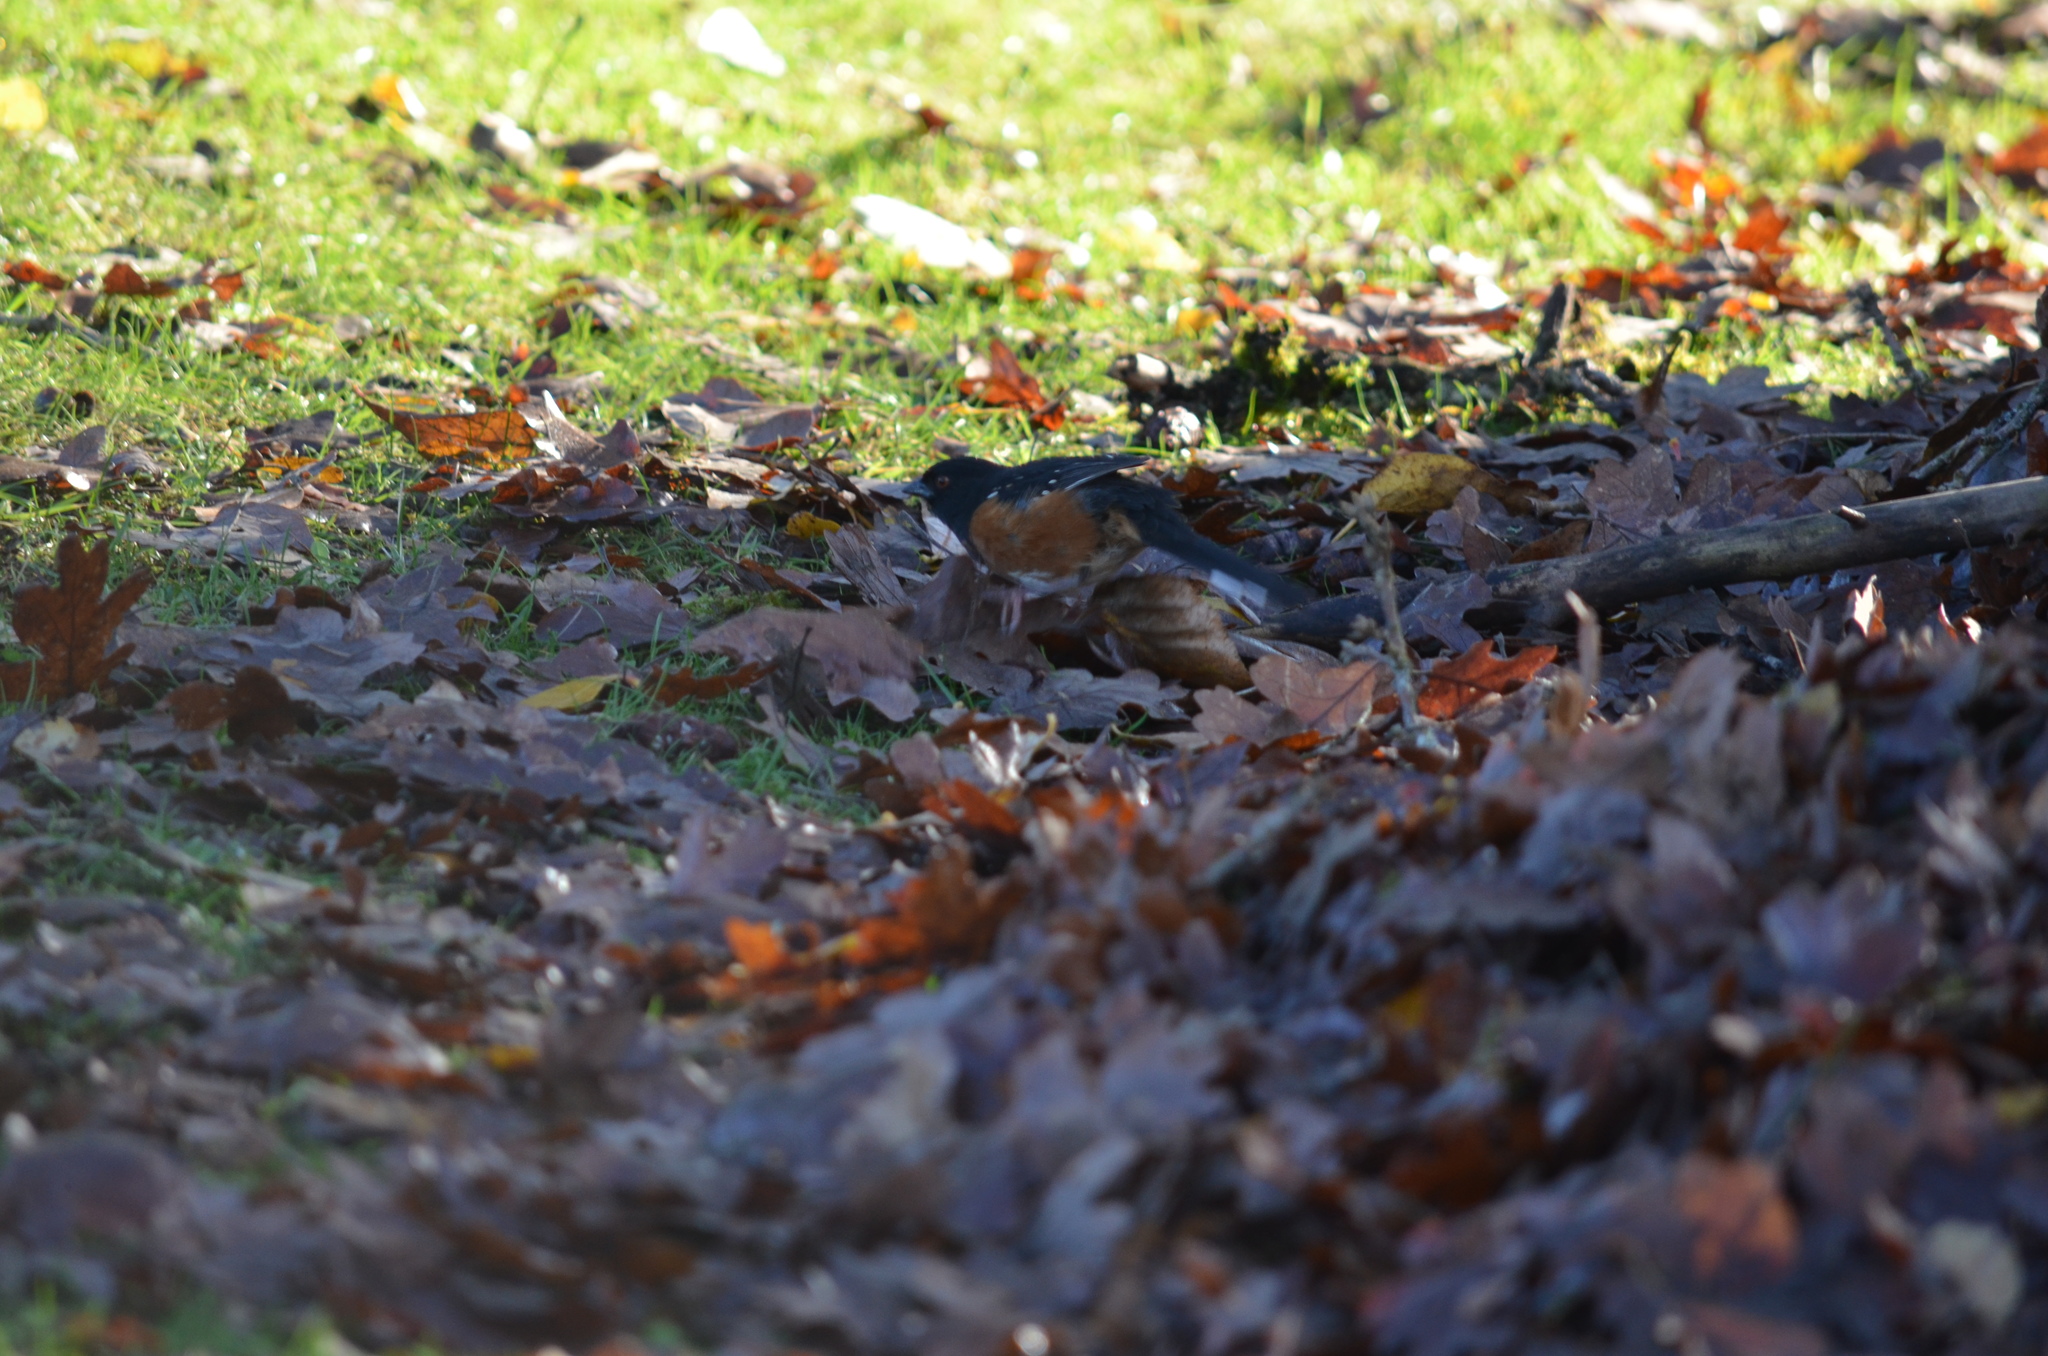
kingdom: Animalia
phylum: Chordata
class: Aves
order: Passeriformes
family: Passerellidae
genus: Pipilo
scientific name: Pipilo maculatus
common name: Spotted towhee
